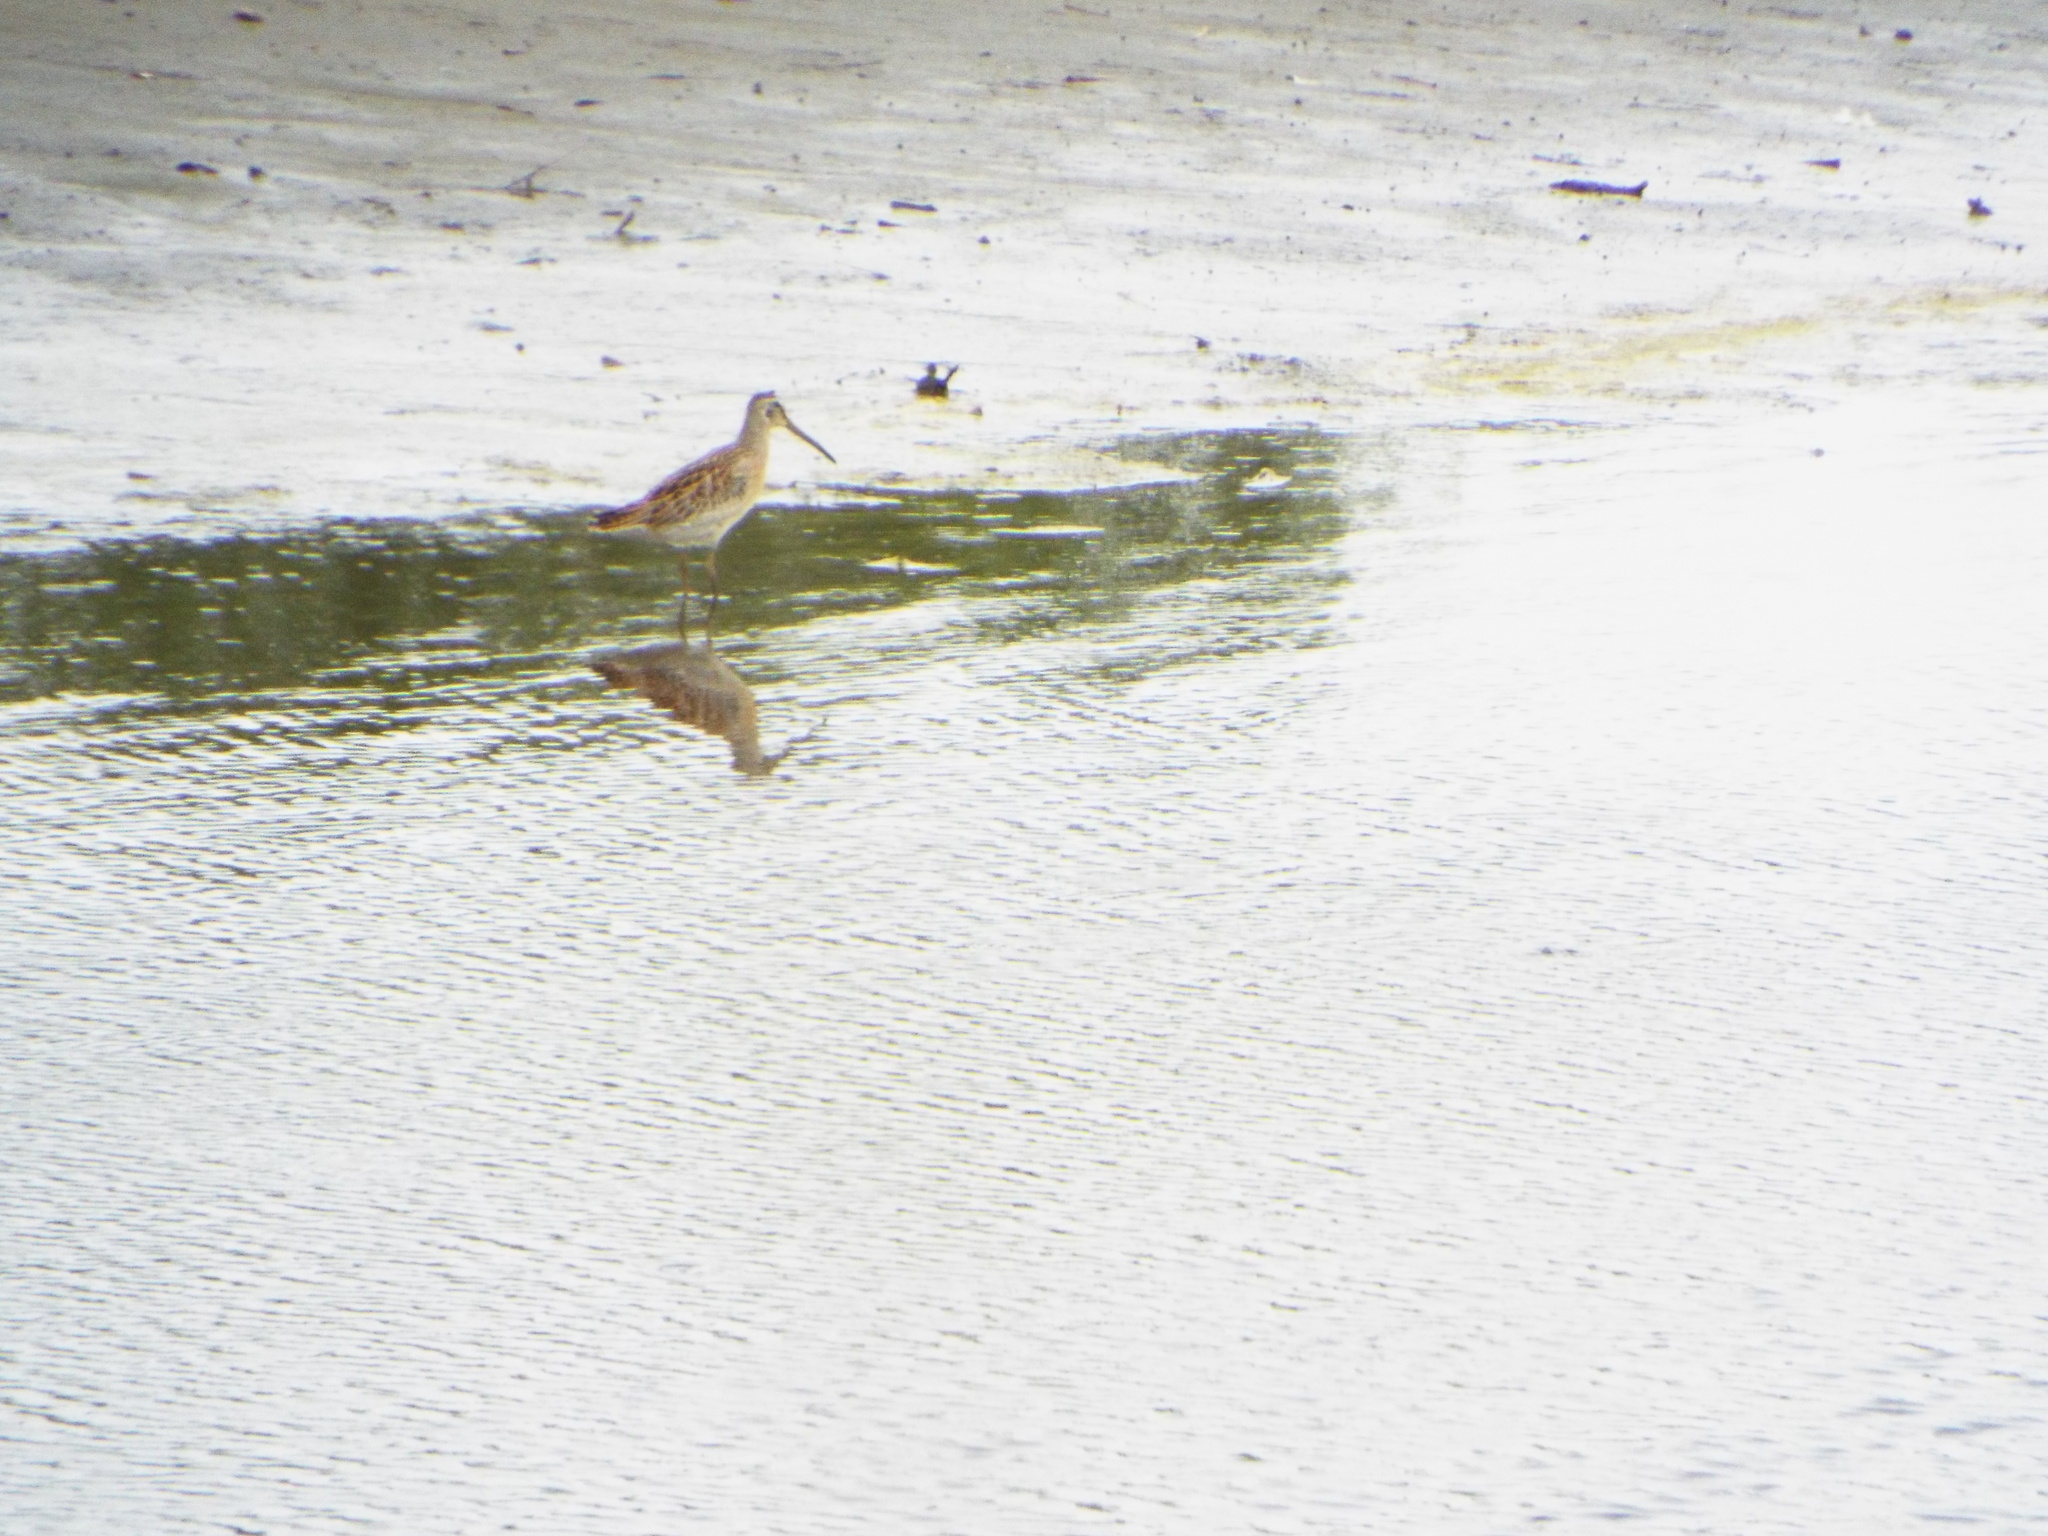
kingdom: Animalia
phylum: Chordata
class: Aves
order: Charadriiformes
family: Scolopacidae
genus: Limnodromus
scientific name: Limnodromus griseus
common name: Short-billed dowitcher
